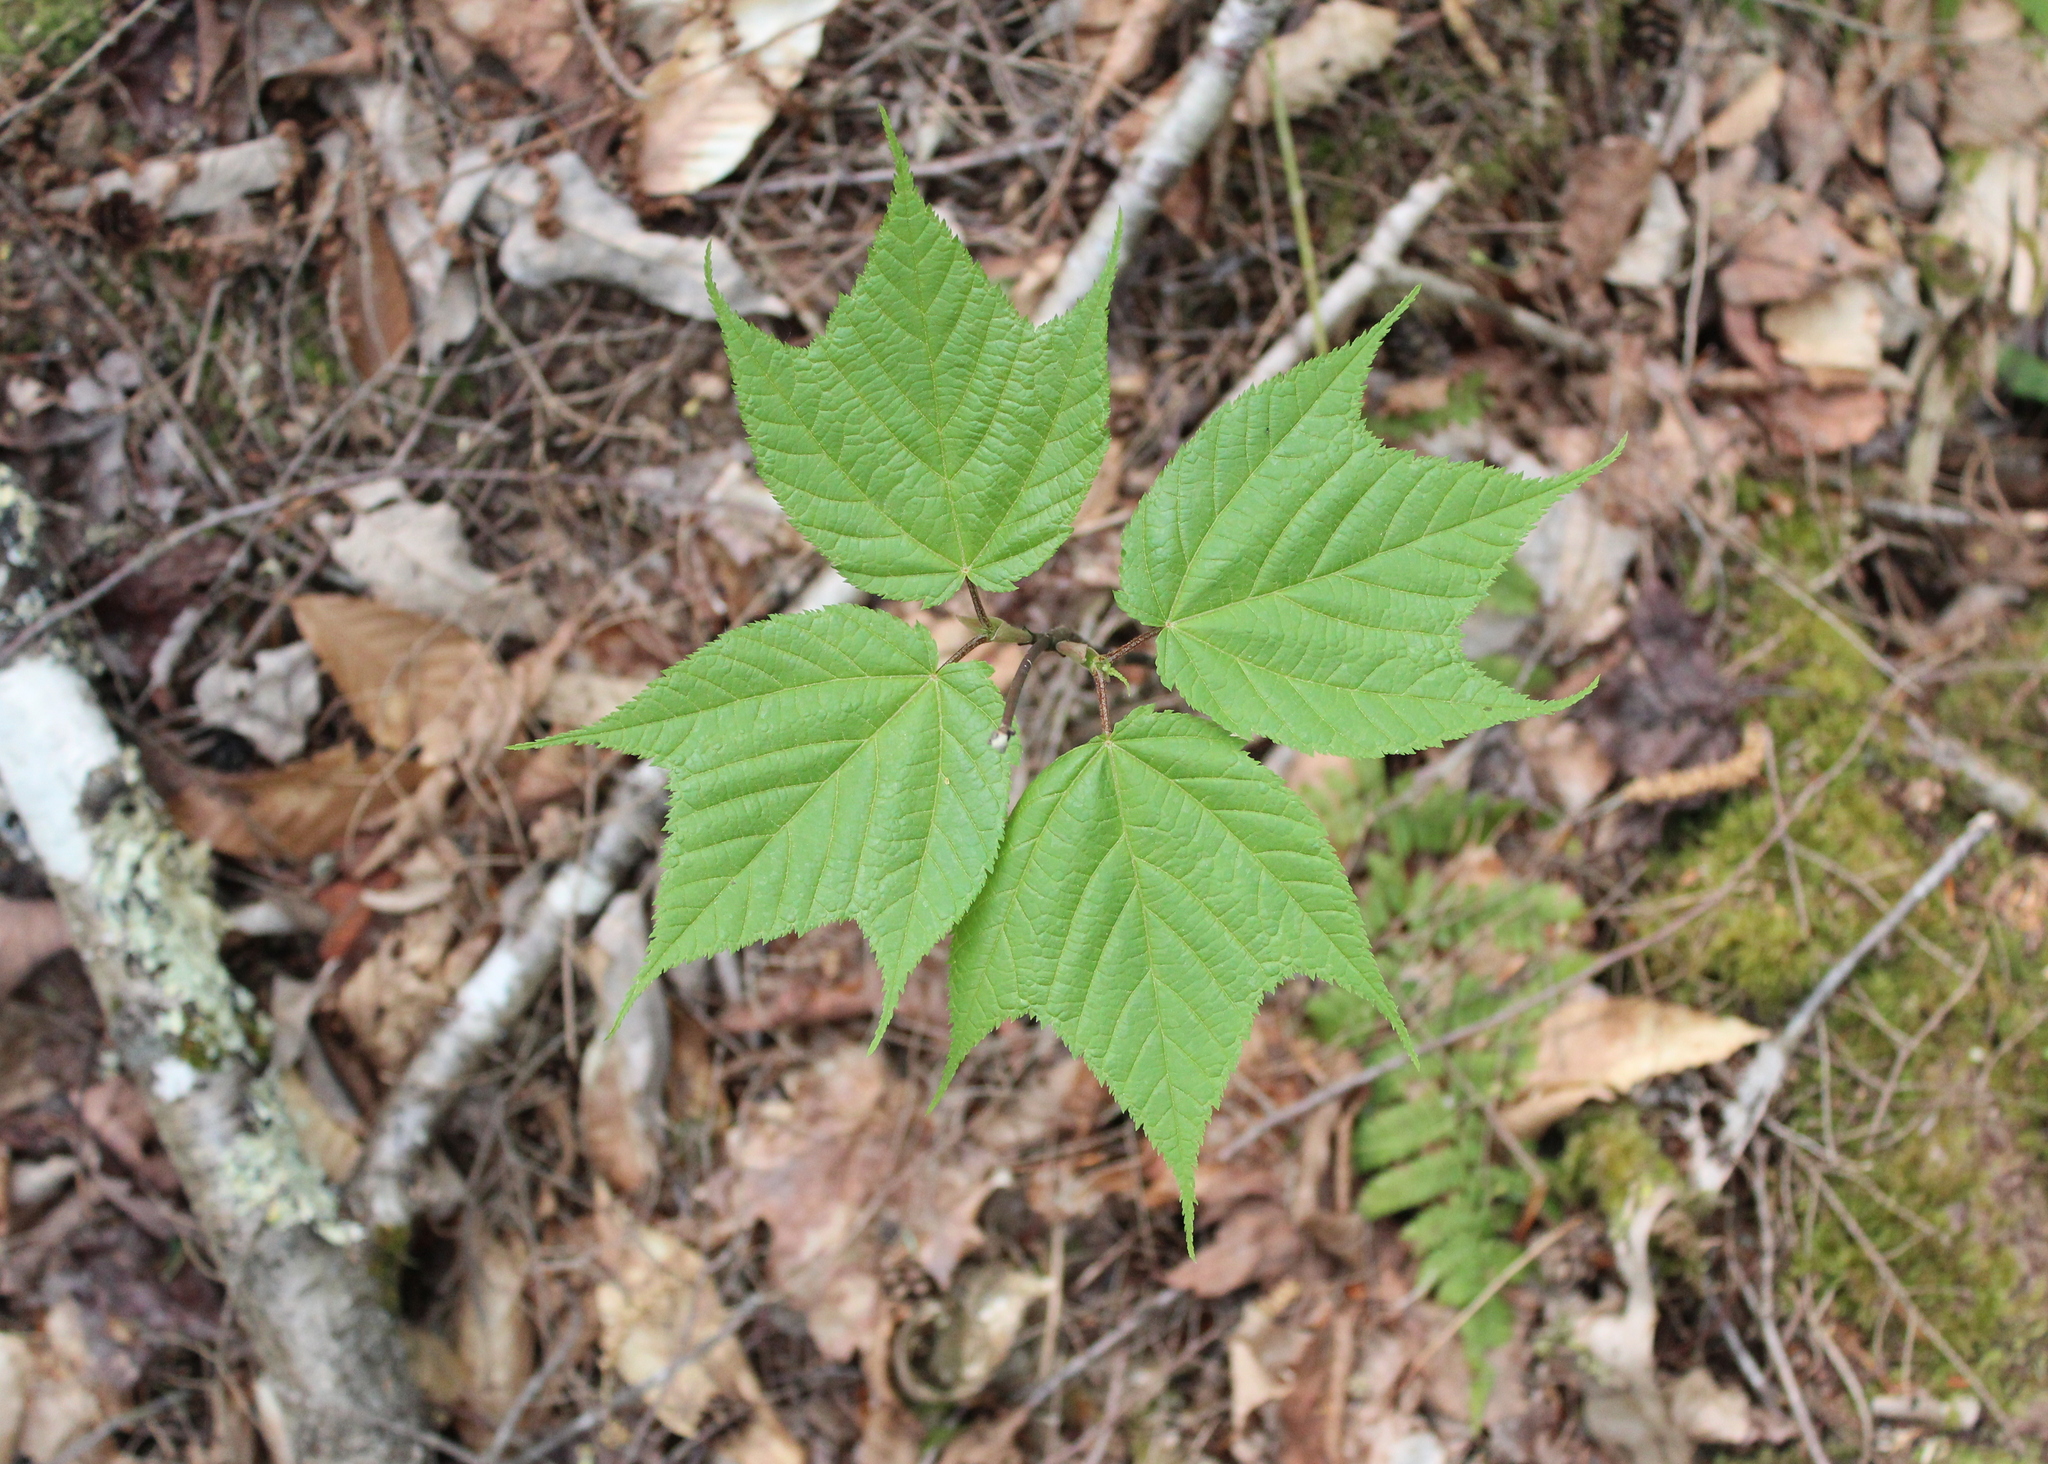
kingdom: Plantae
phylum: Tracheophyta
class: Magnoliopsida
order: Sapindales
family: Sapindaceae
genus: Acer
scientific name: Acer pensylvanicum
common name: Moosewood
